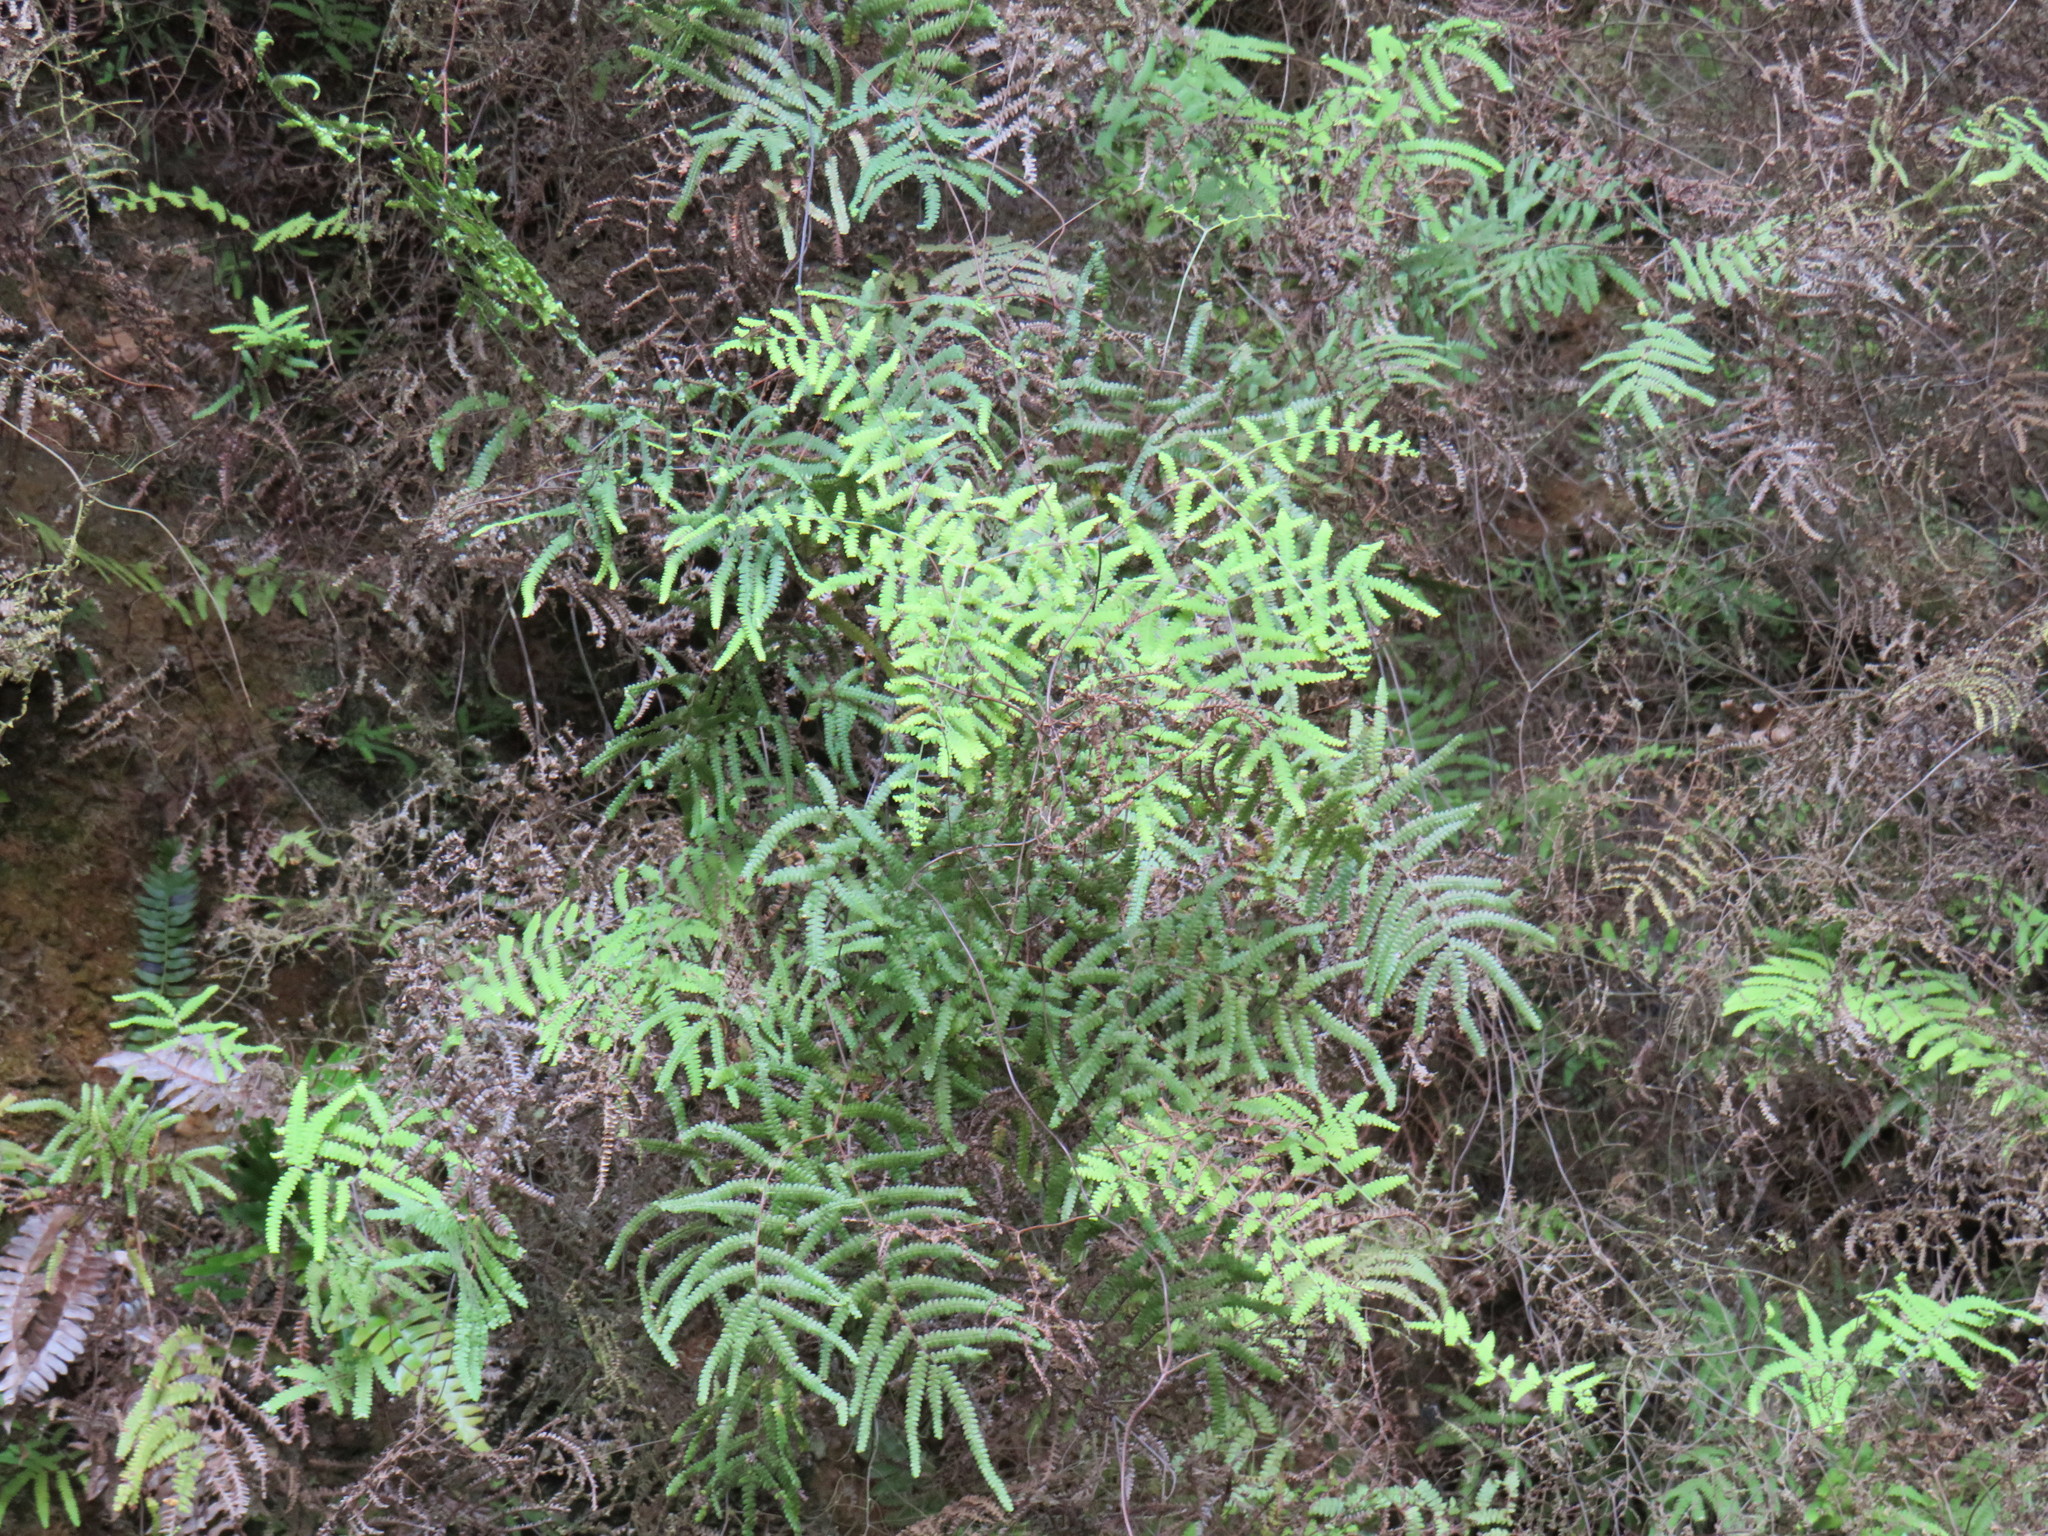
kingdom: Plantae
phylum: Tracheophyta
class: Polypodiopsida
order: Gleicheniales
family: Gleicheniaceae
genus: Gleichenia
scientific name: Gleichenia polypodioides
